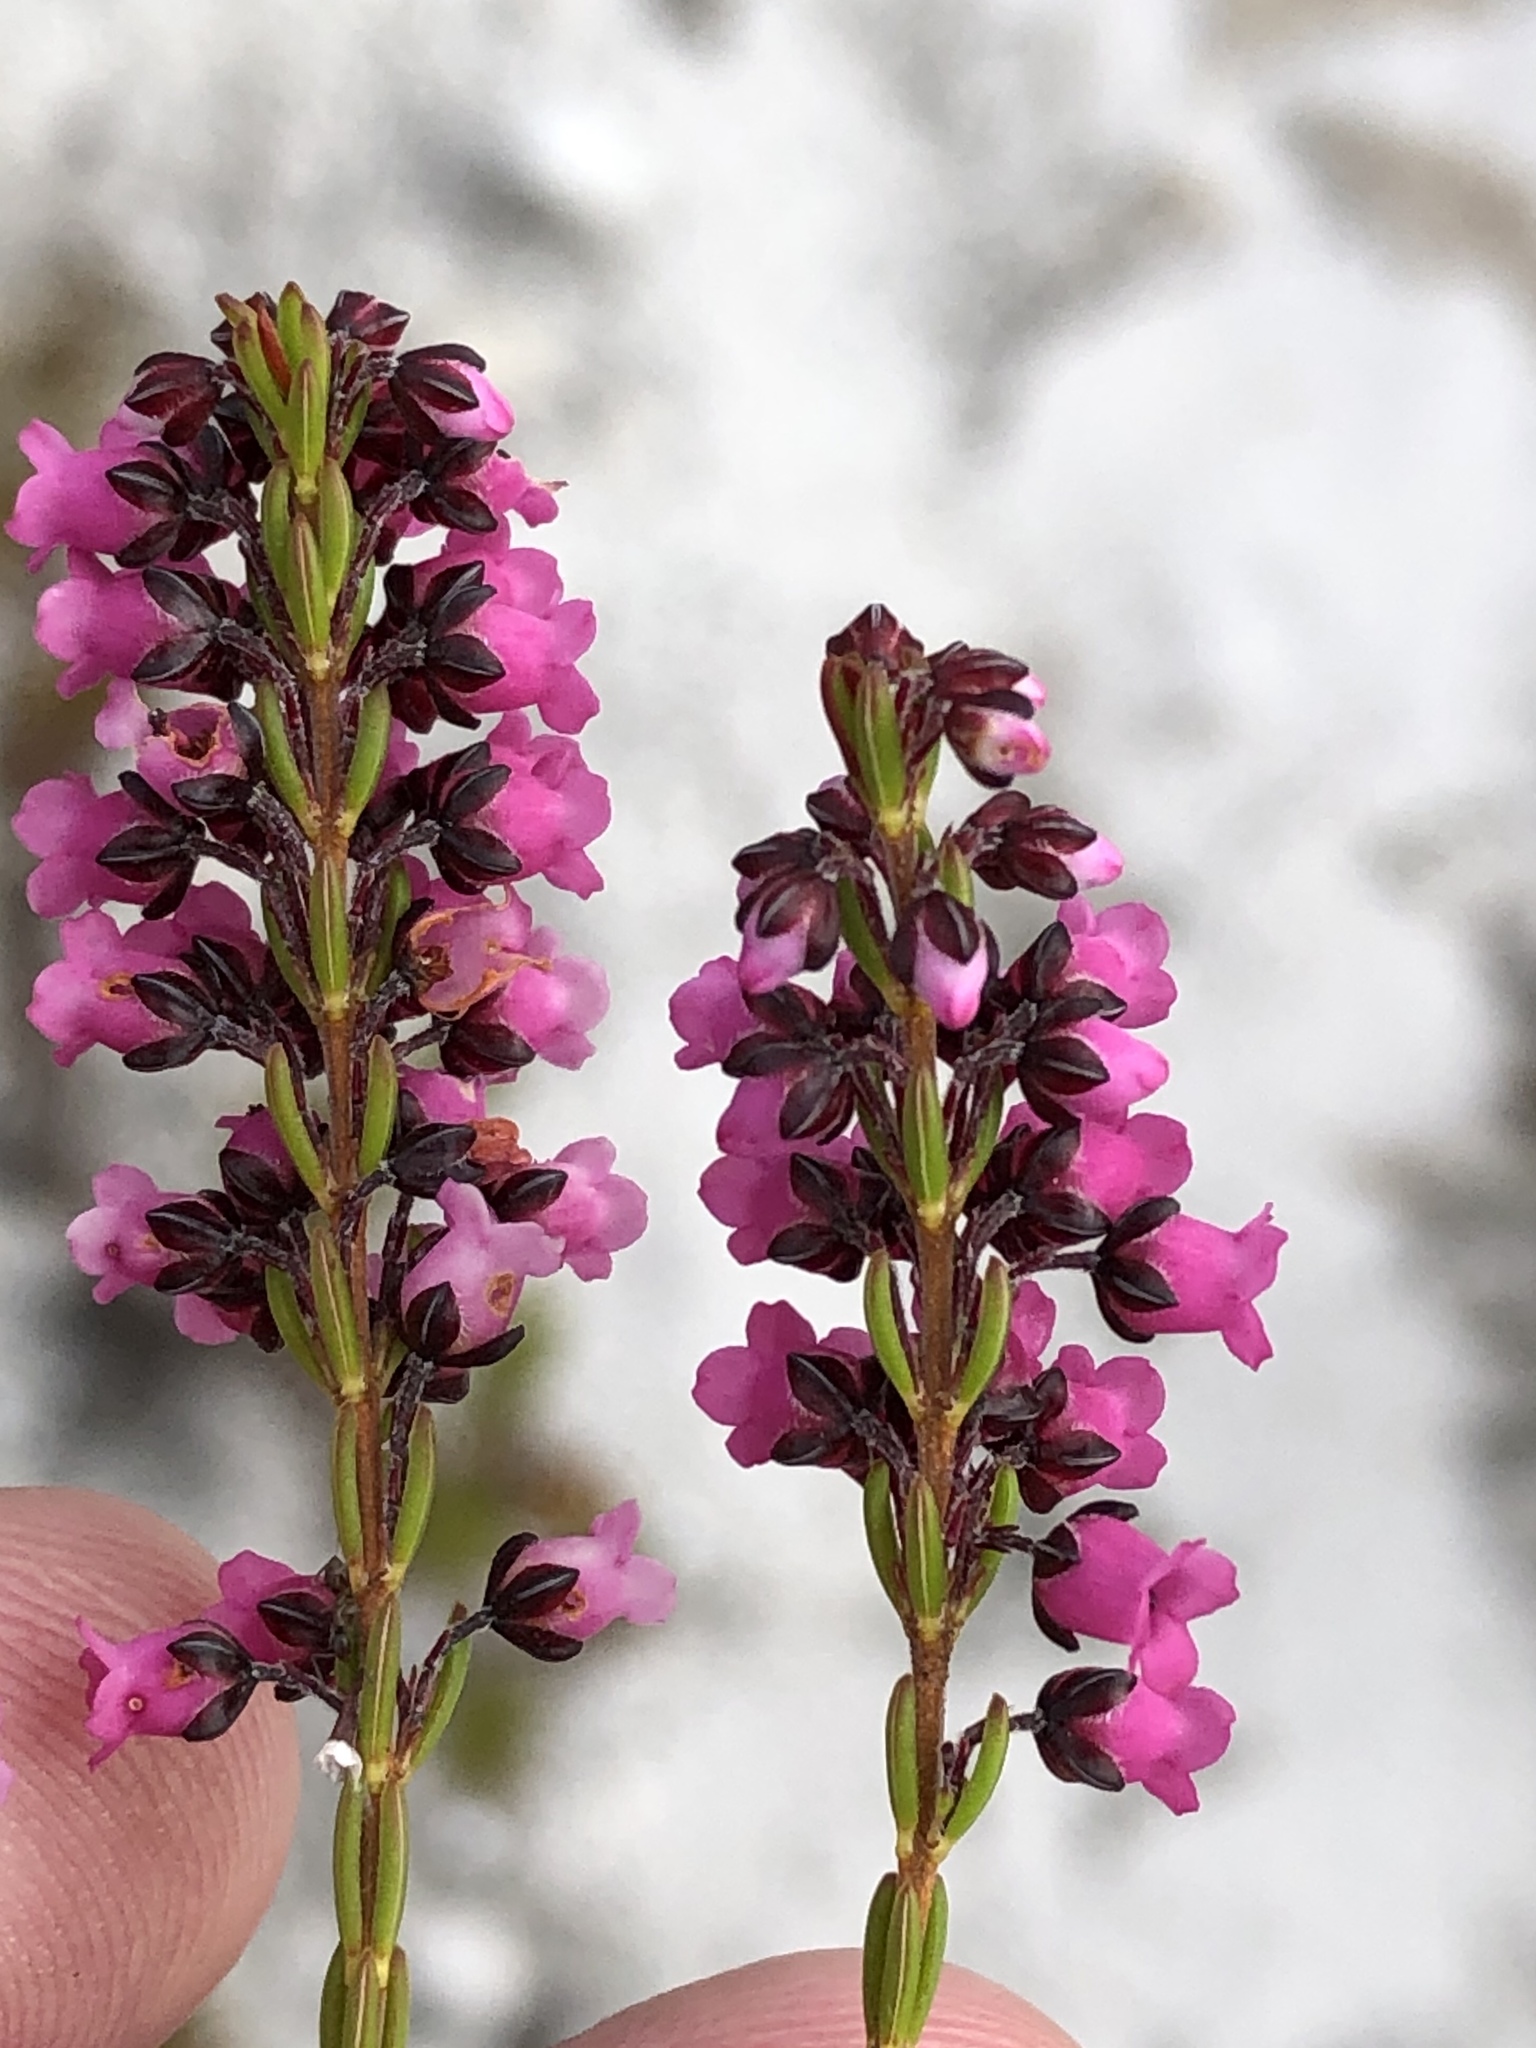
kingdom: Plantae
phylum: Tracheophyta
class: Magnoliopsida
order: Ericales
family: Ericaceae
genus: Erica
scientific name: Erica pulchella
